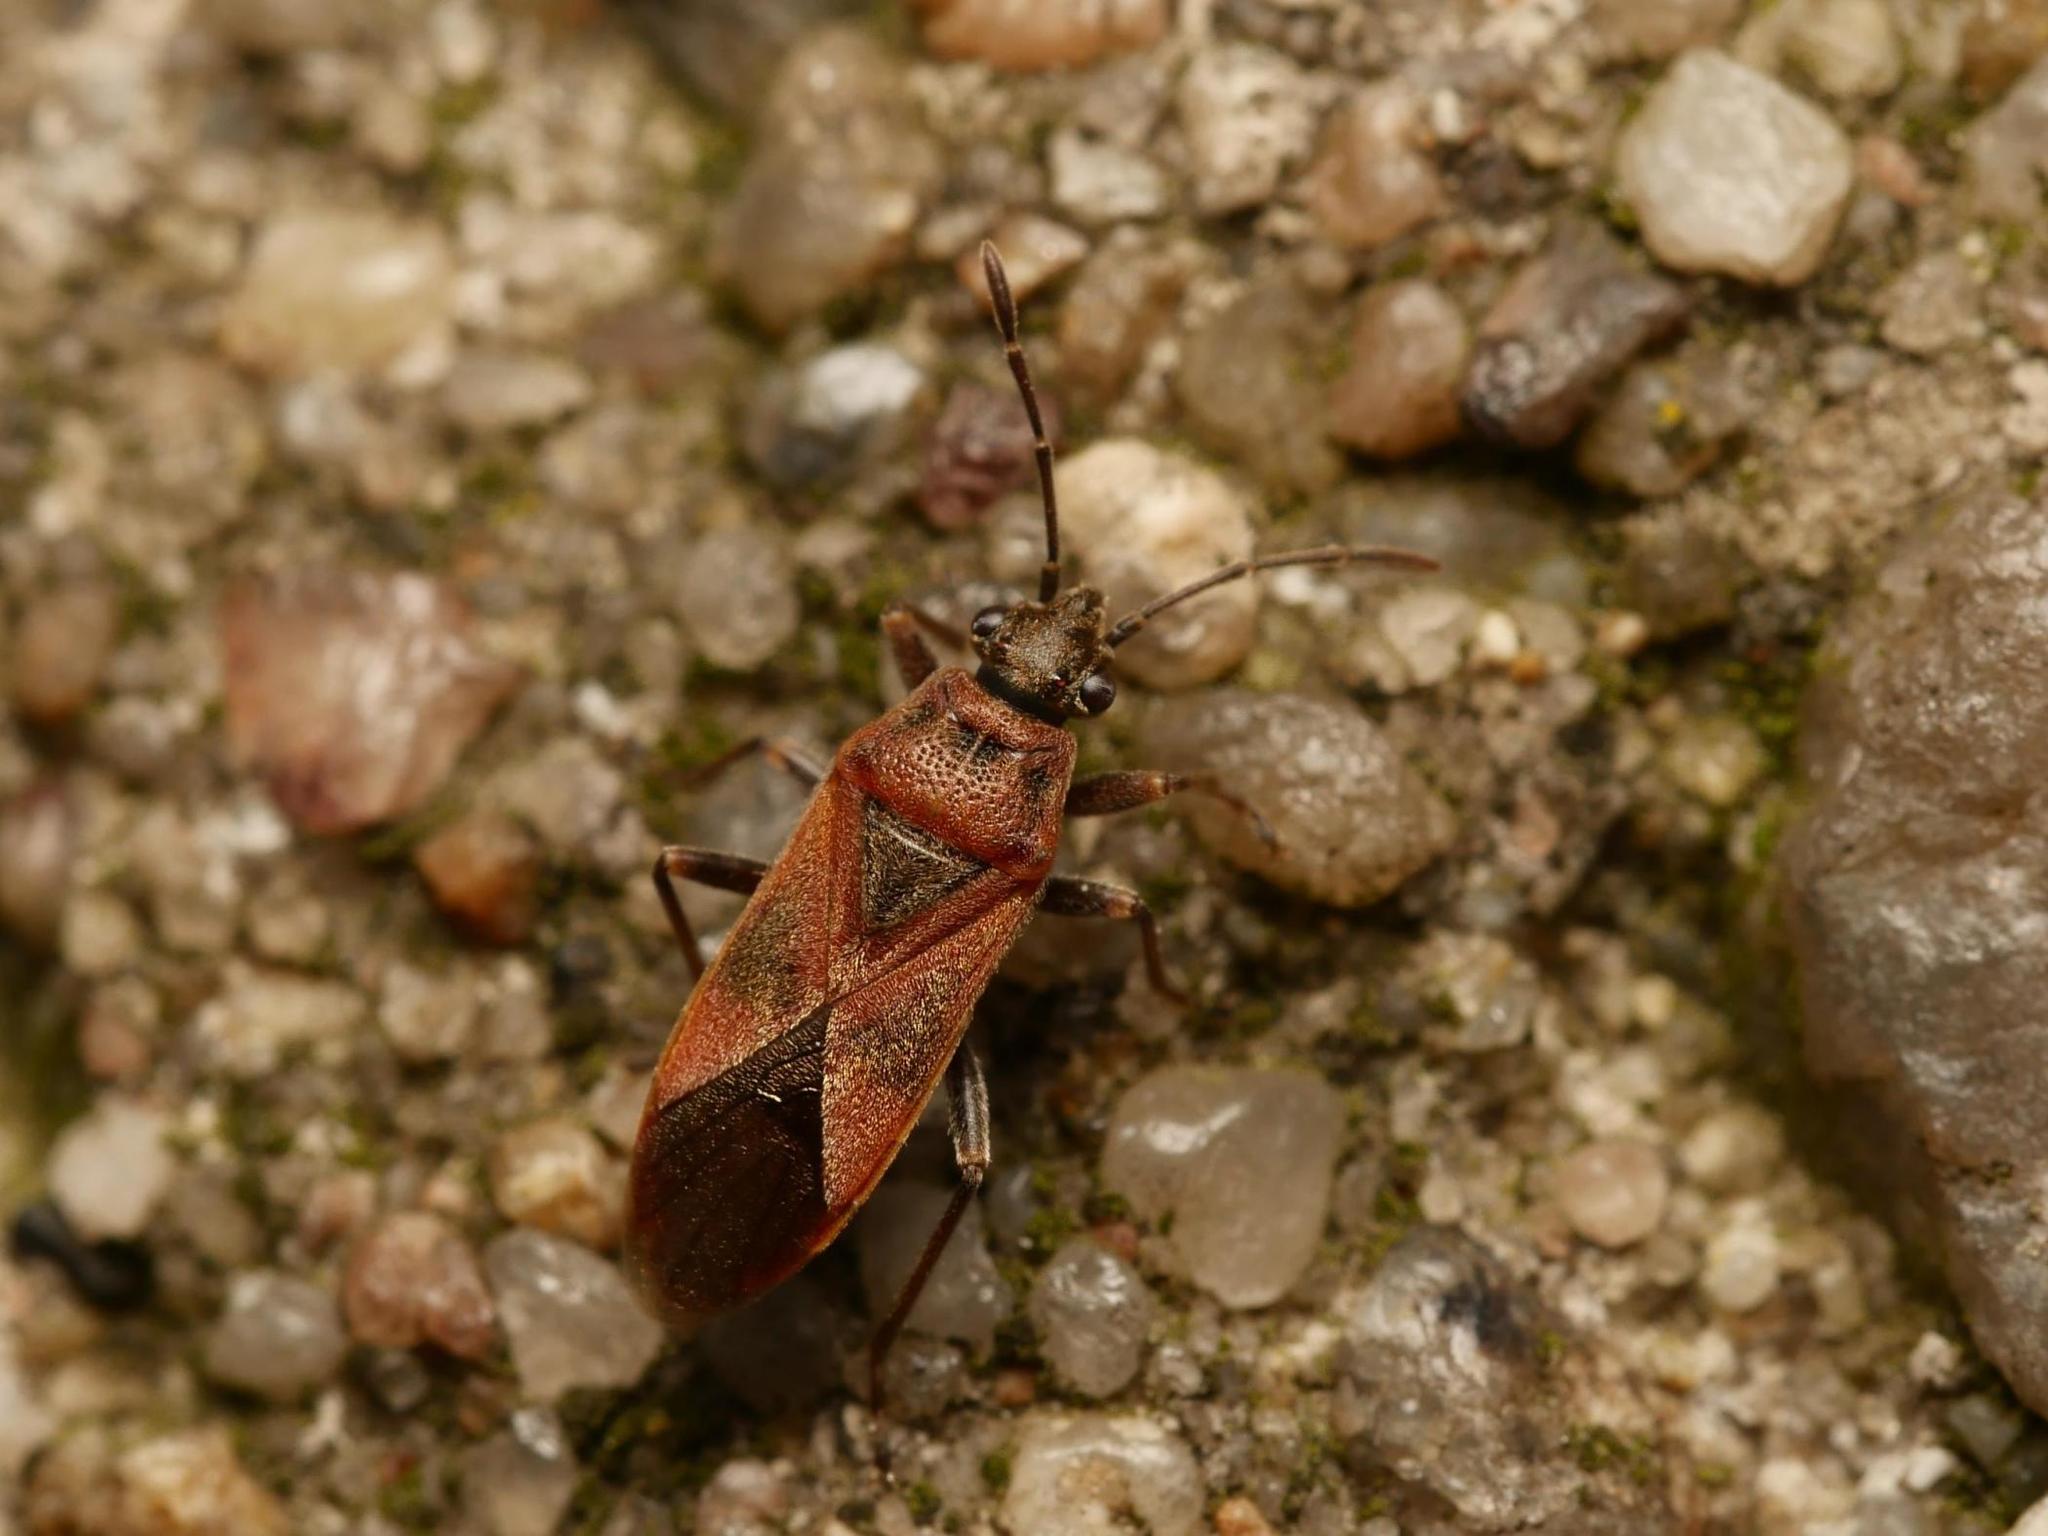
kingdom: Animalia
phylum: Arthropoda
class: Insecta
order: Hemiptera
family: Lygaeidae
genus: Arocatus
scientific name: Arocatus roeselii
